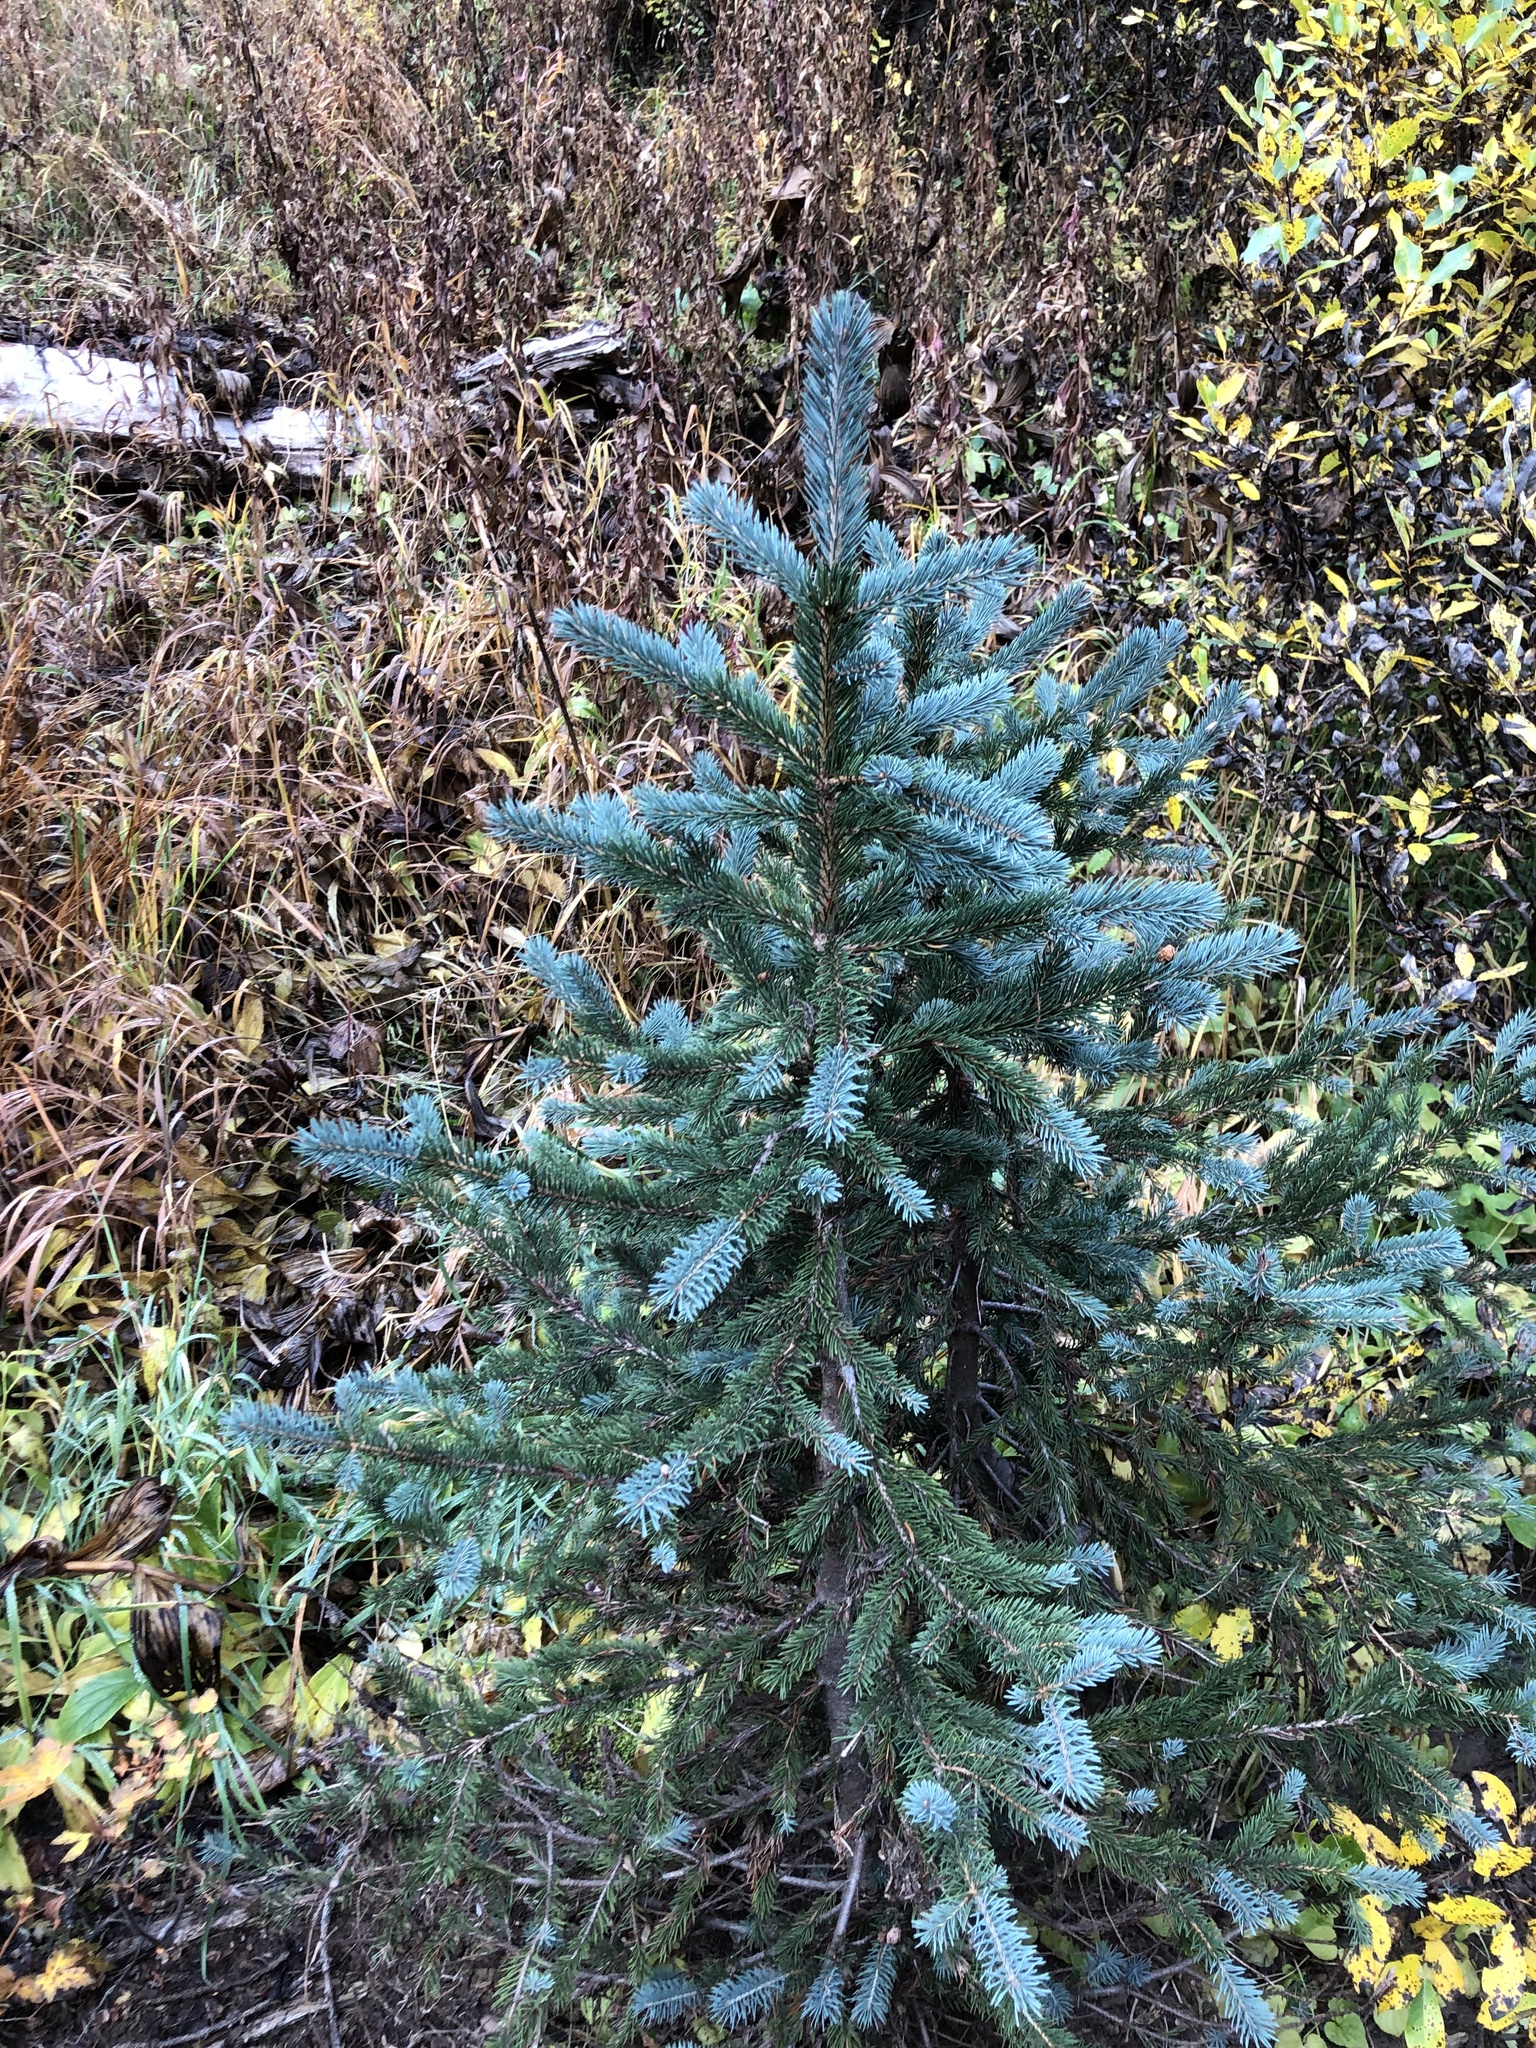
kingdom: Plantae
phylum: Tracheophyta
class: Pinopsida
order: Pinales
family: Pinaceae
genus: Picea
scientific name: Picea engelmannii
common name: Engelmann spruce
